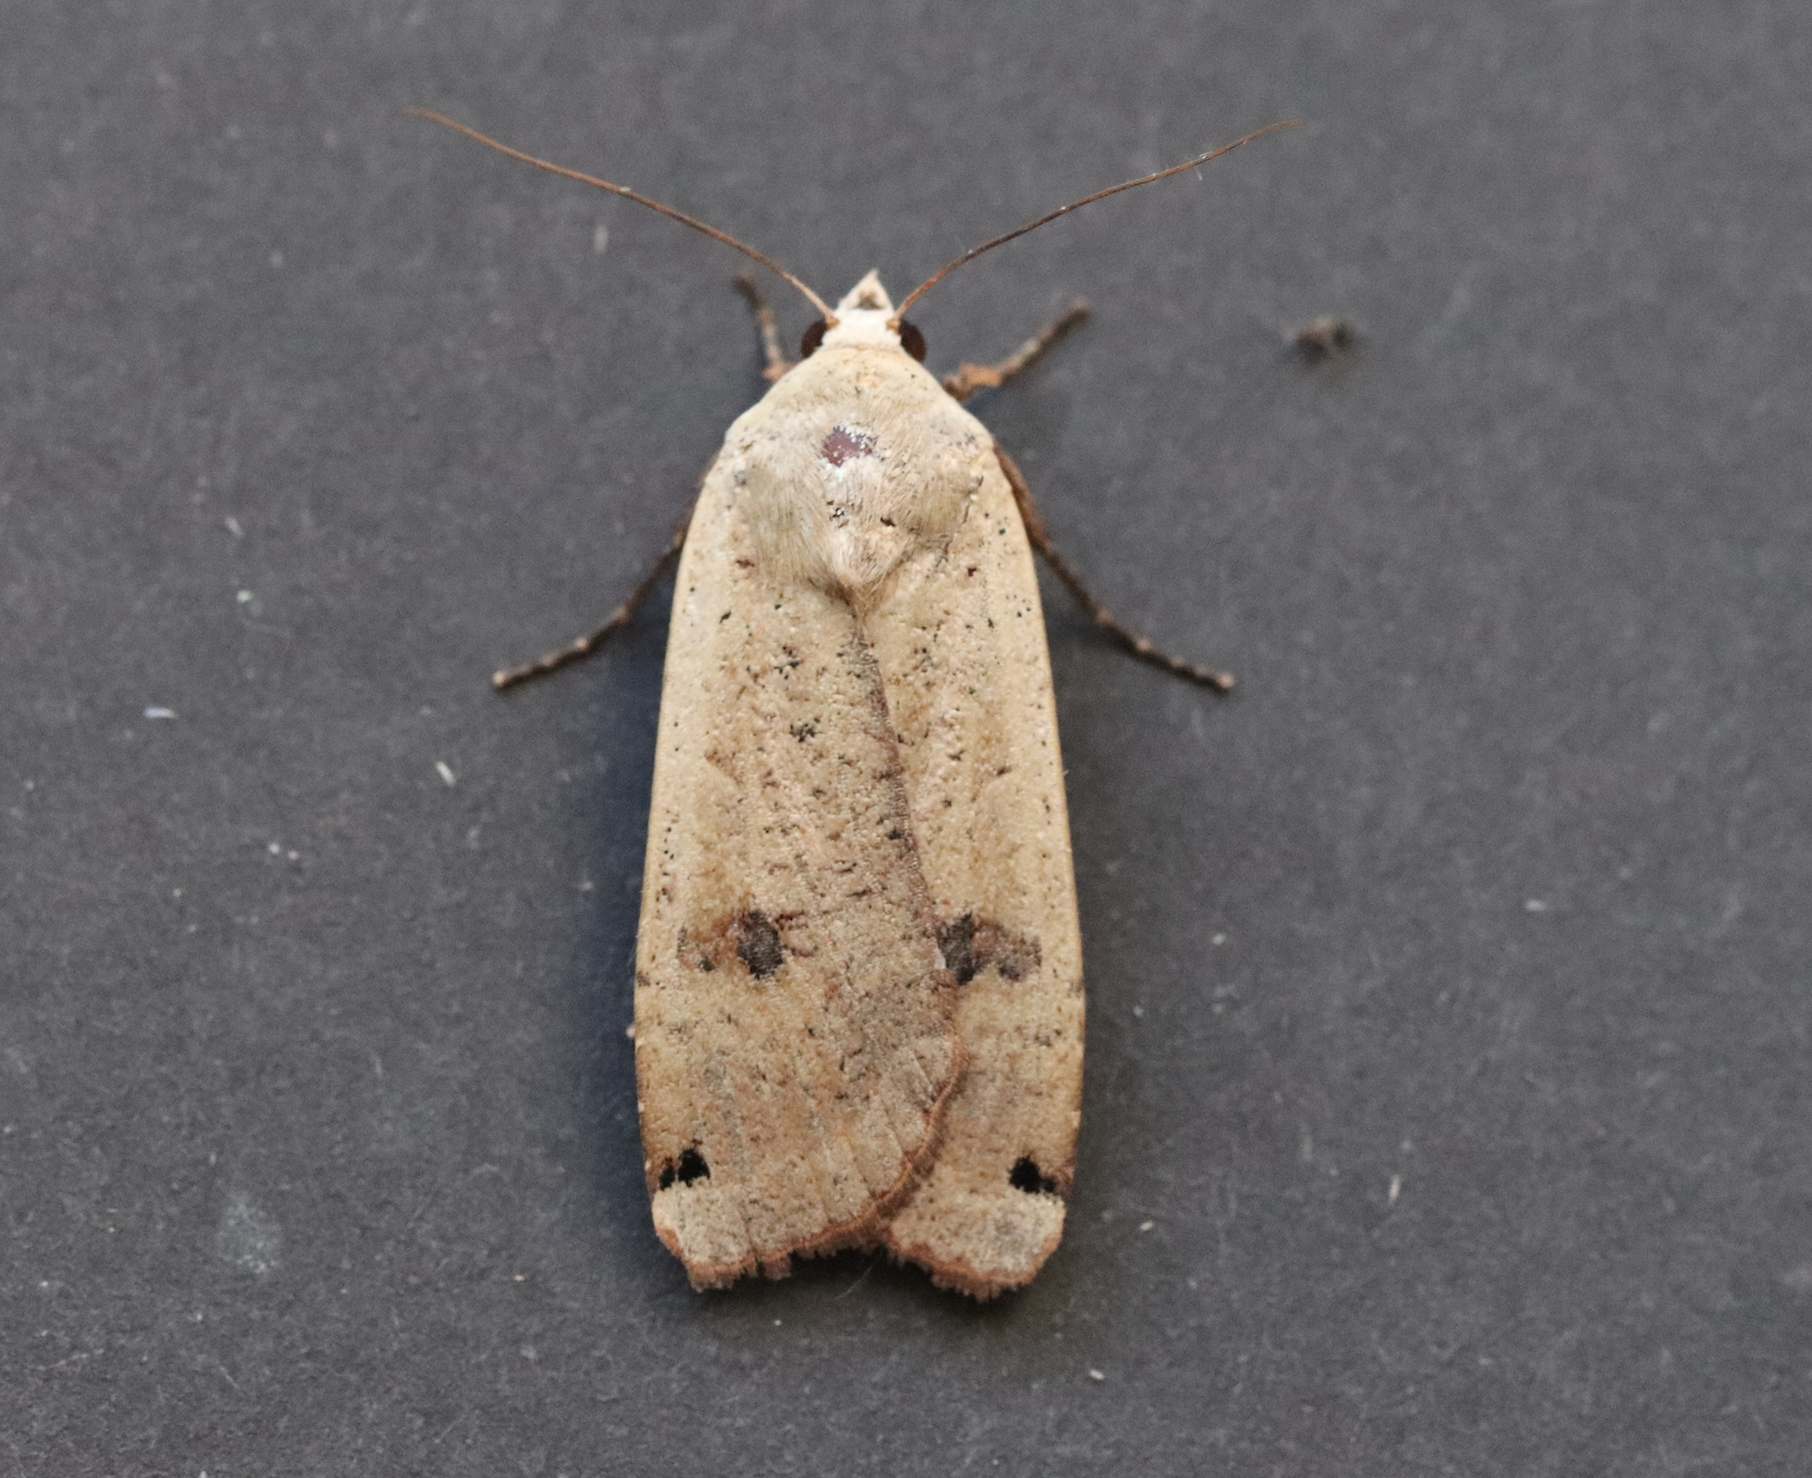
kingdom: Animalia
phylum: Arthropoda
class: Insecta
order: Lepidoptera
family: Noctuidae
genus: Noctua
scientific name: Noctua pronuba
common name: Large yellow underwing
